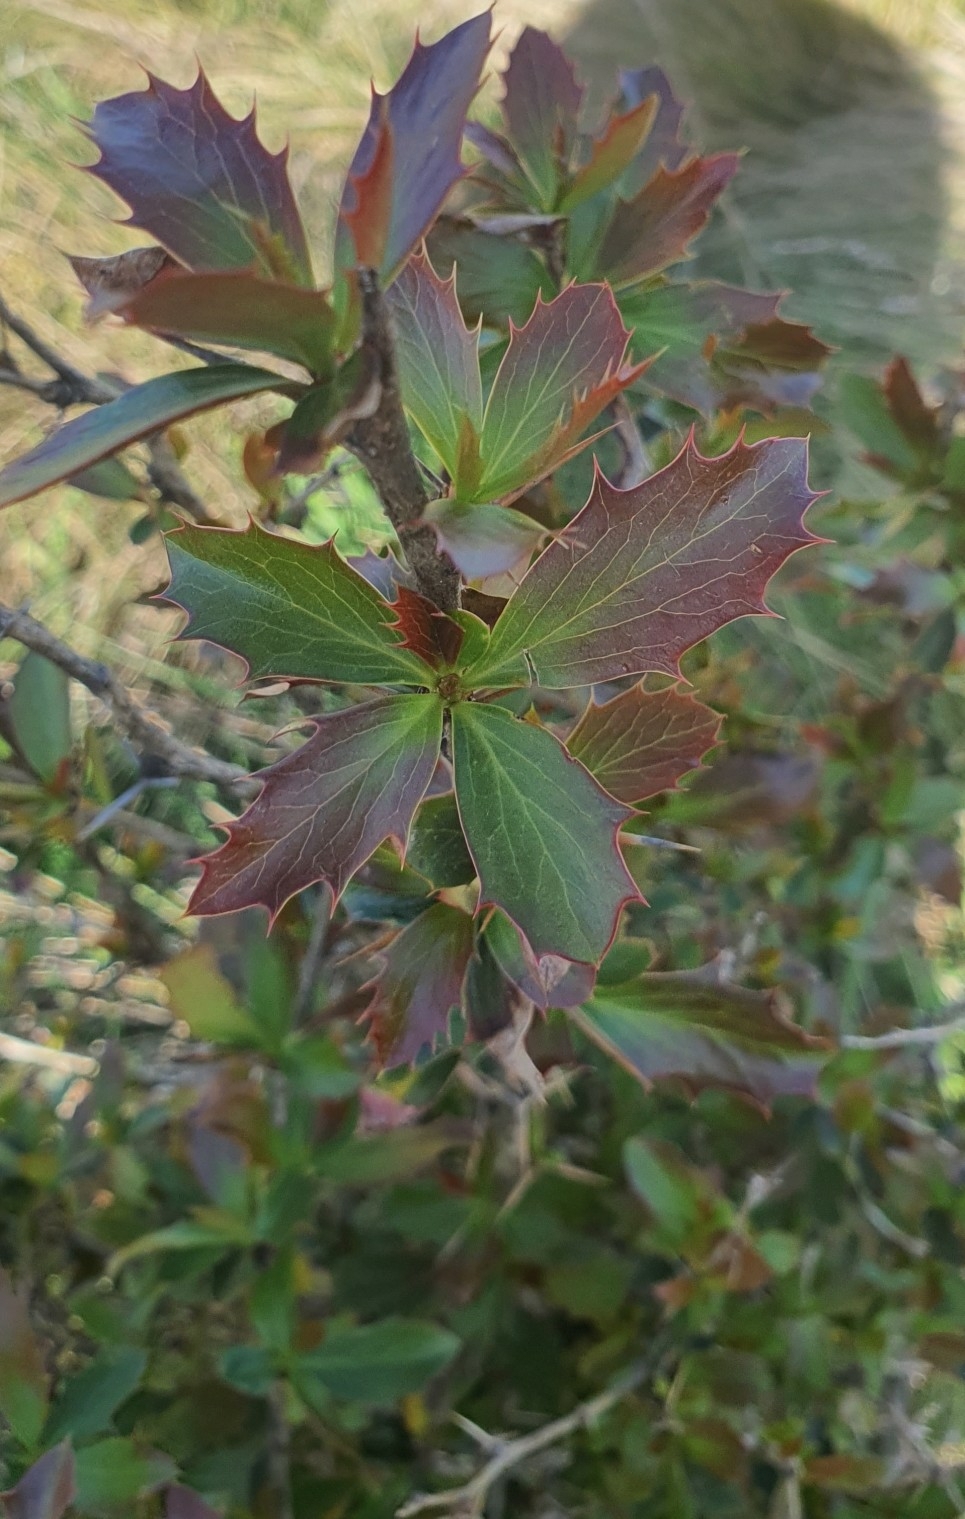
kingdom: Plantae
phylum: Tracheophyta
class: Magnoliopsida
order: Ranunculales
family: Berberidaceae
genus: Berberis
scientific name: Berberis glaucocarpa
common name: Great barberry
